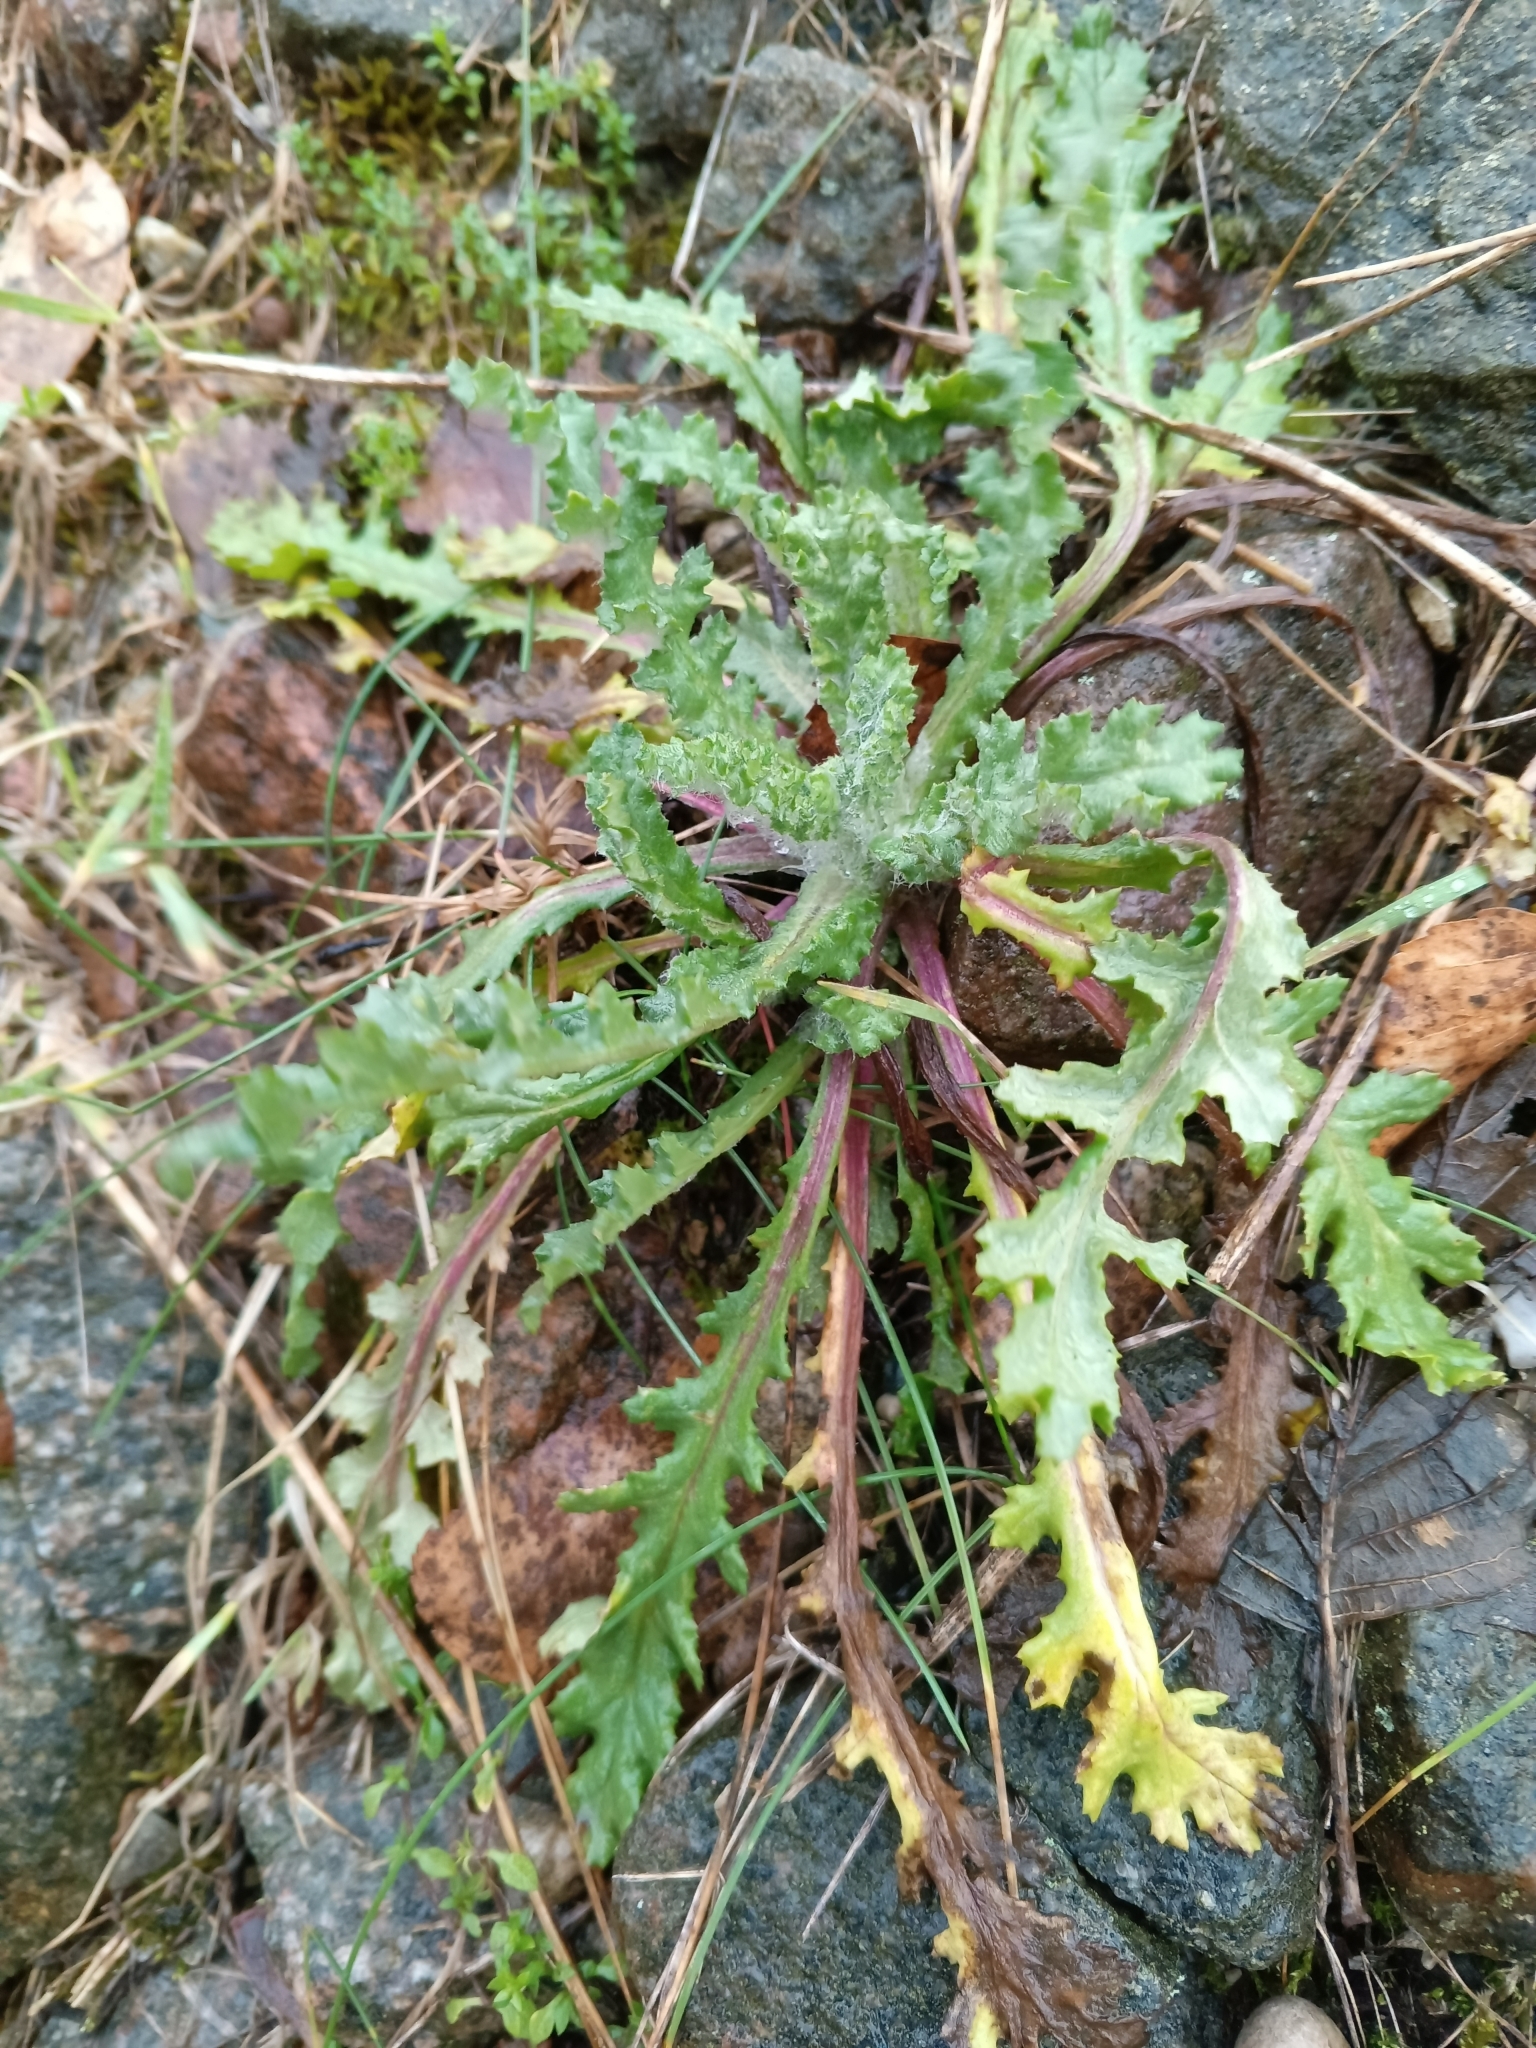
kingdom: Plantae
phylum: Tracheophyta
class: Magnoliopsida
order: Asterales
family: Asteraceae
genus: Senecio
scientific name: Senecio vernalis
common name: Eastern groundsel
